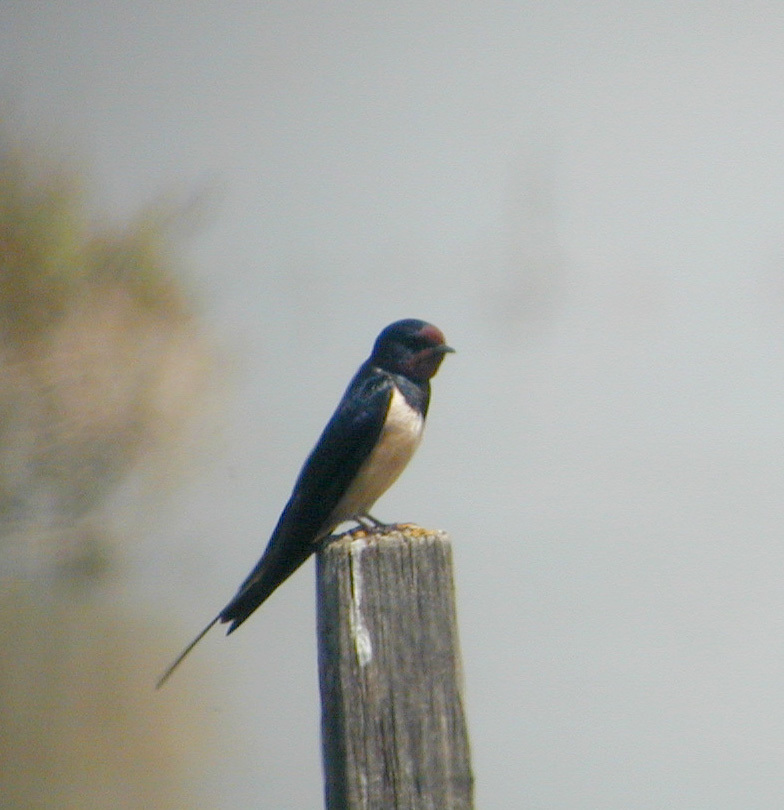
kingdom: Animalia
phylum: Chordata
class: Aves
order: Passeriformes
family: Hirundinidae
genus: Hirundo
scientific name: Hirundo rustica
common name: Barn swallow
